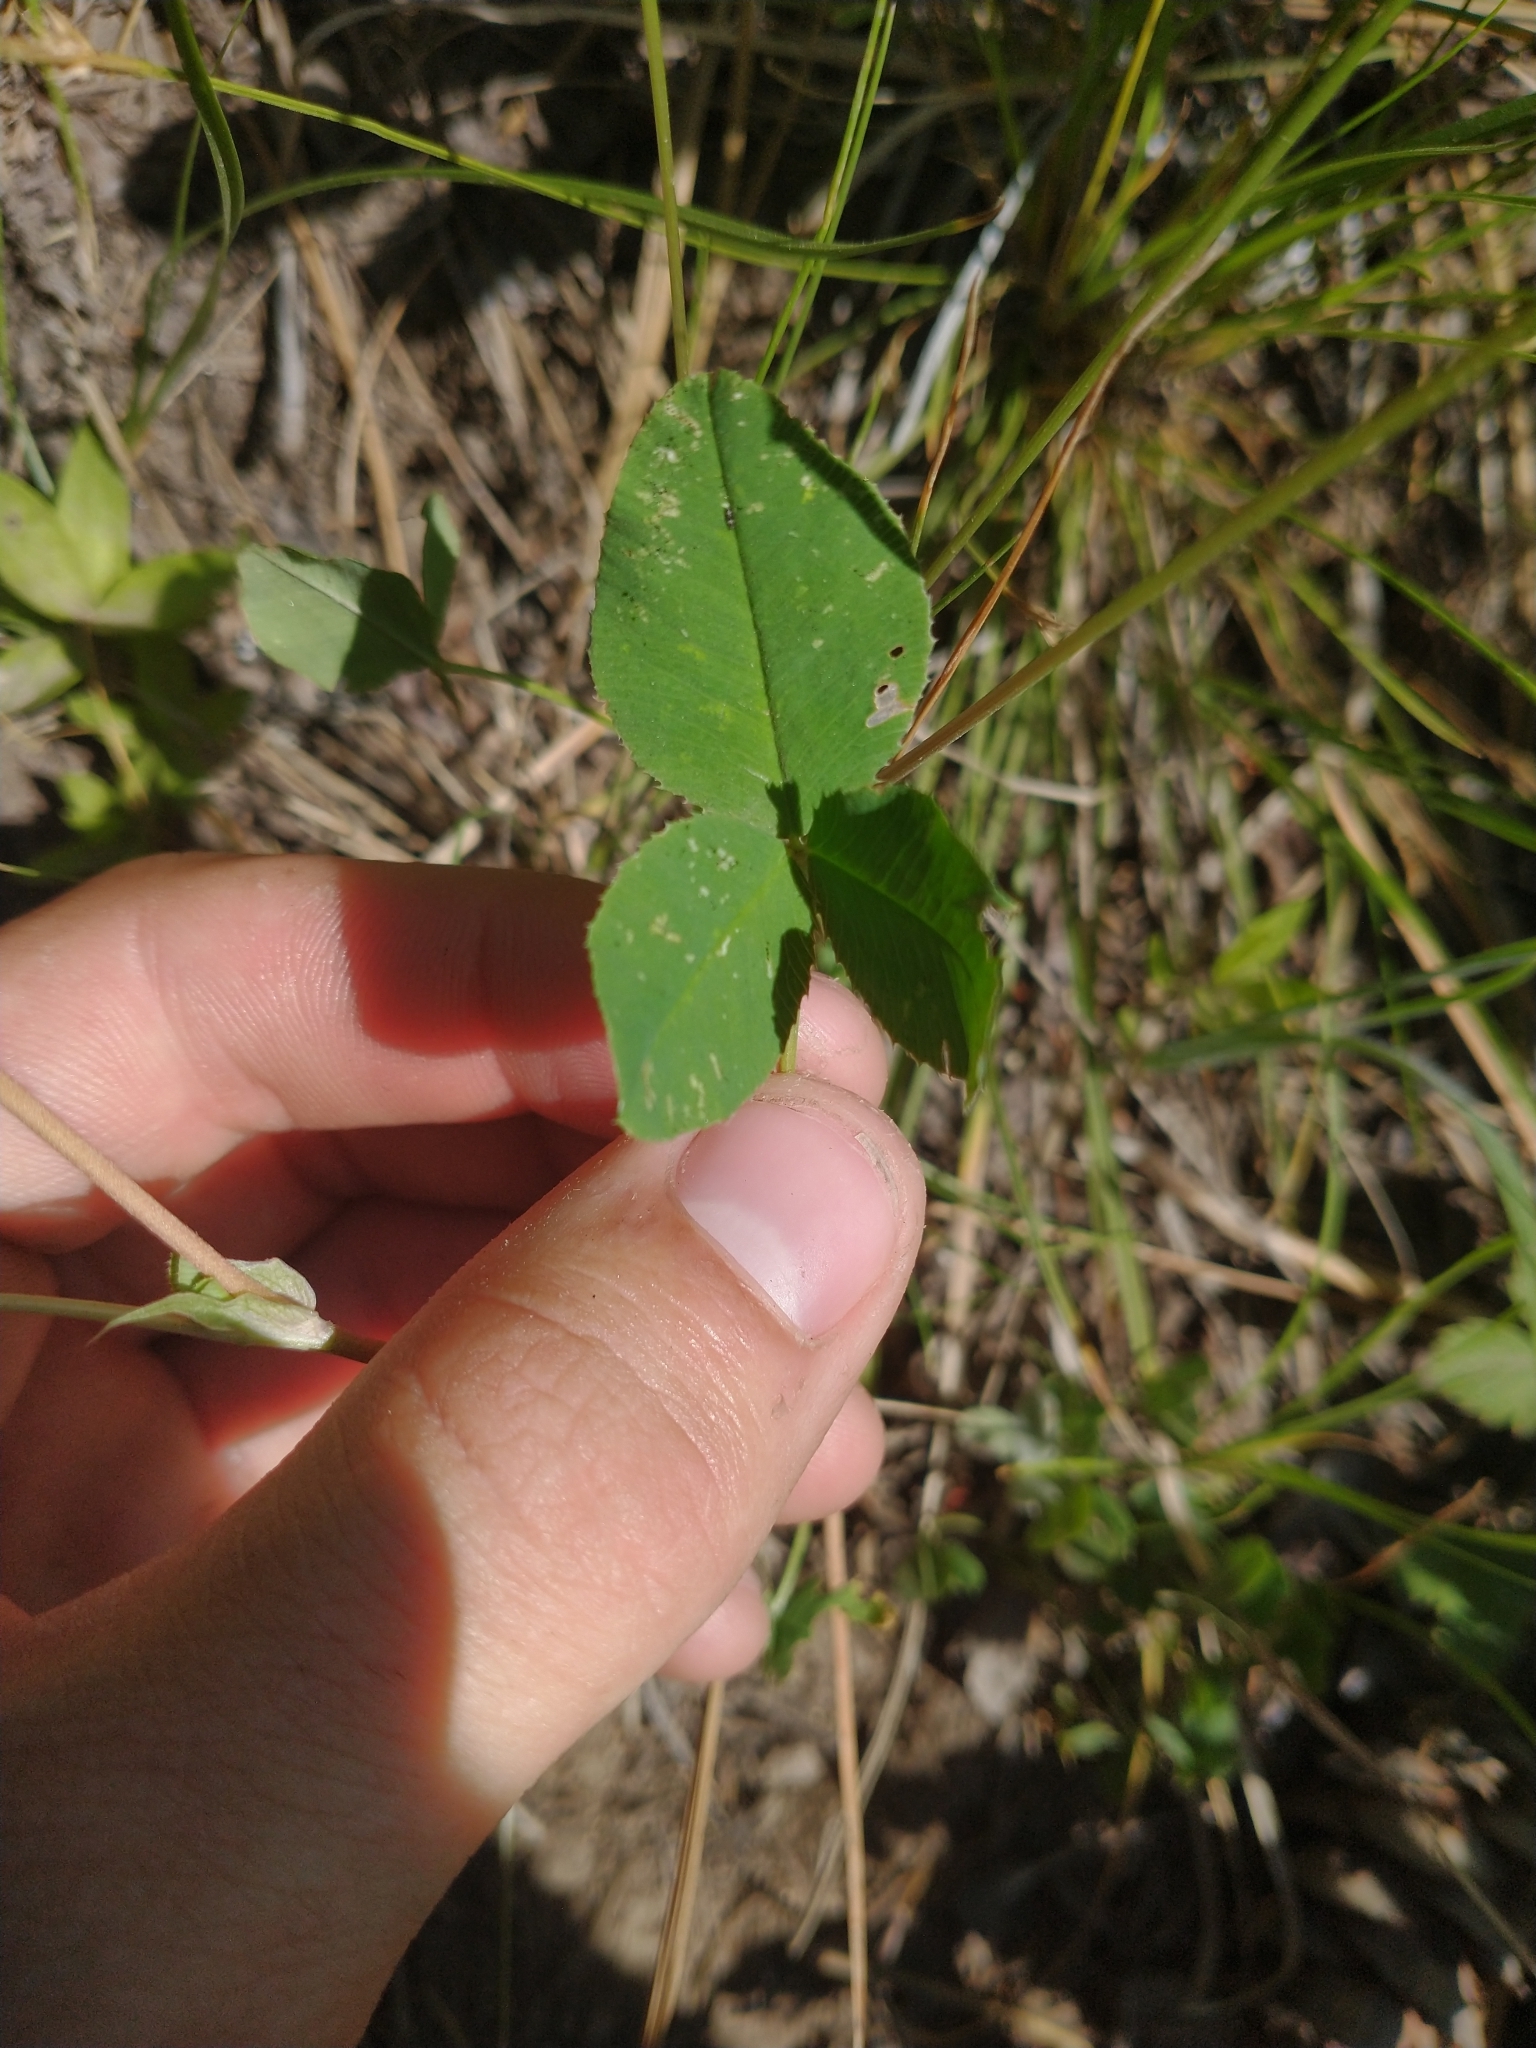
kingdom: Plantae
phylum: Tracheophyta
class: Magnoliopsida
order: Fabales
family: Fabaceae
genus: Trifolium
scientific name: Trifolium hybridum
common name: Alsike clover
